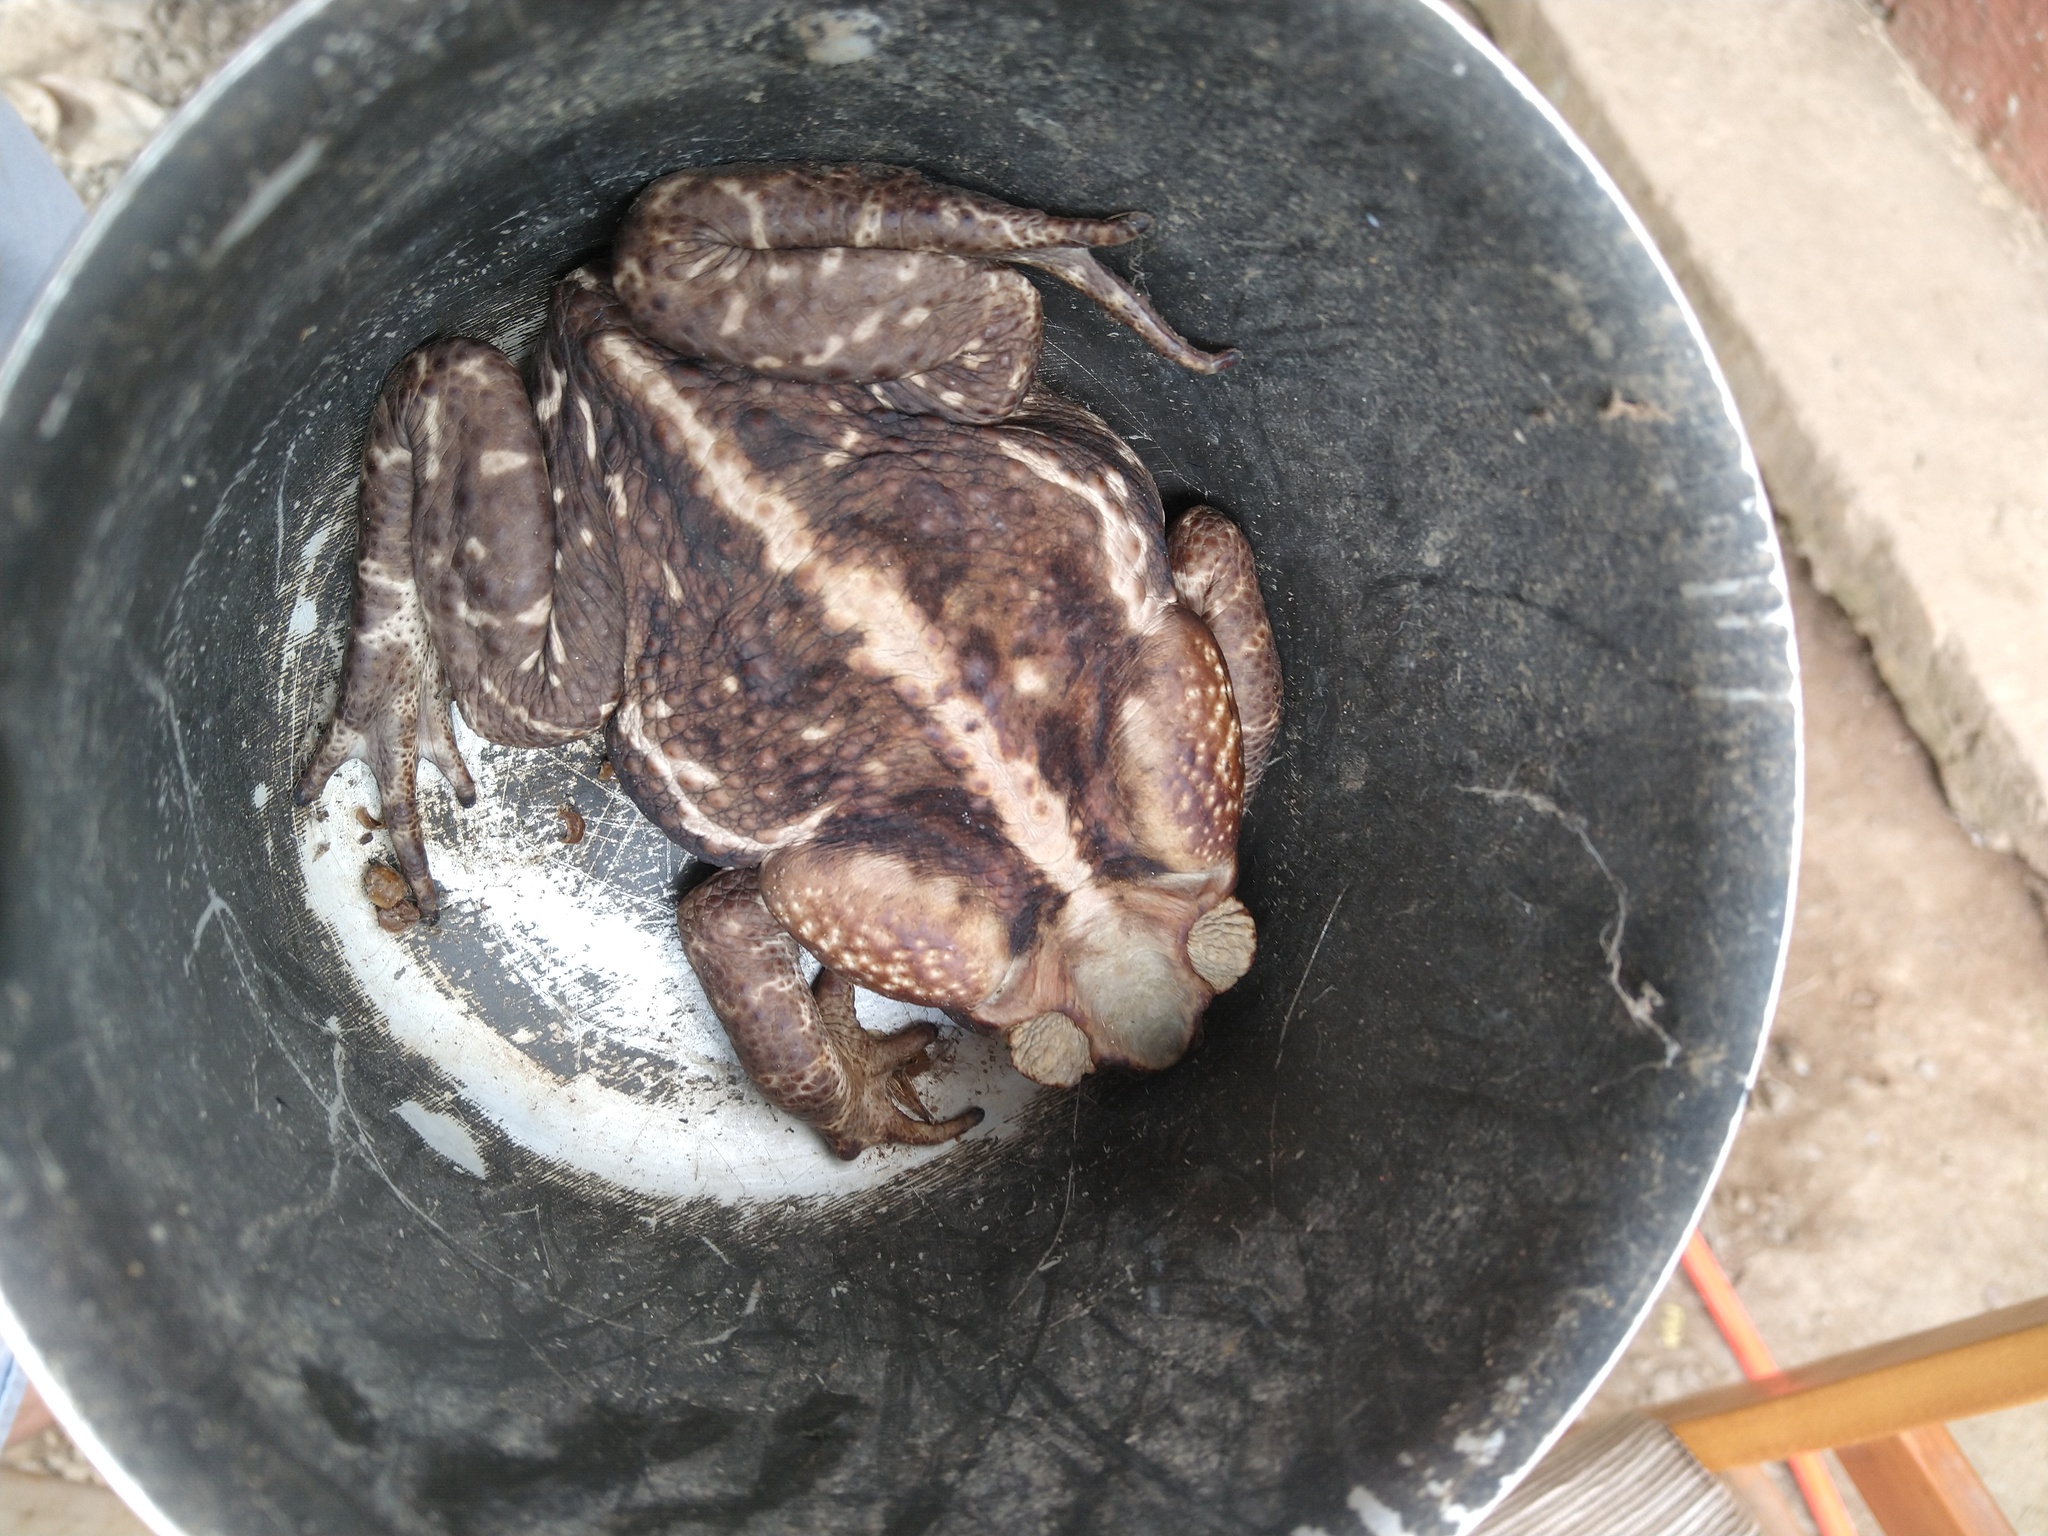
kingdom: Animalia
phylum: Chordata
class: Amphibia
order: Anura
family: Bufonidae
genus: Rhinella
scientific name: Rhinella icterica
